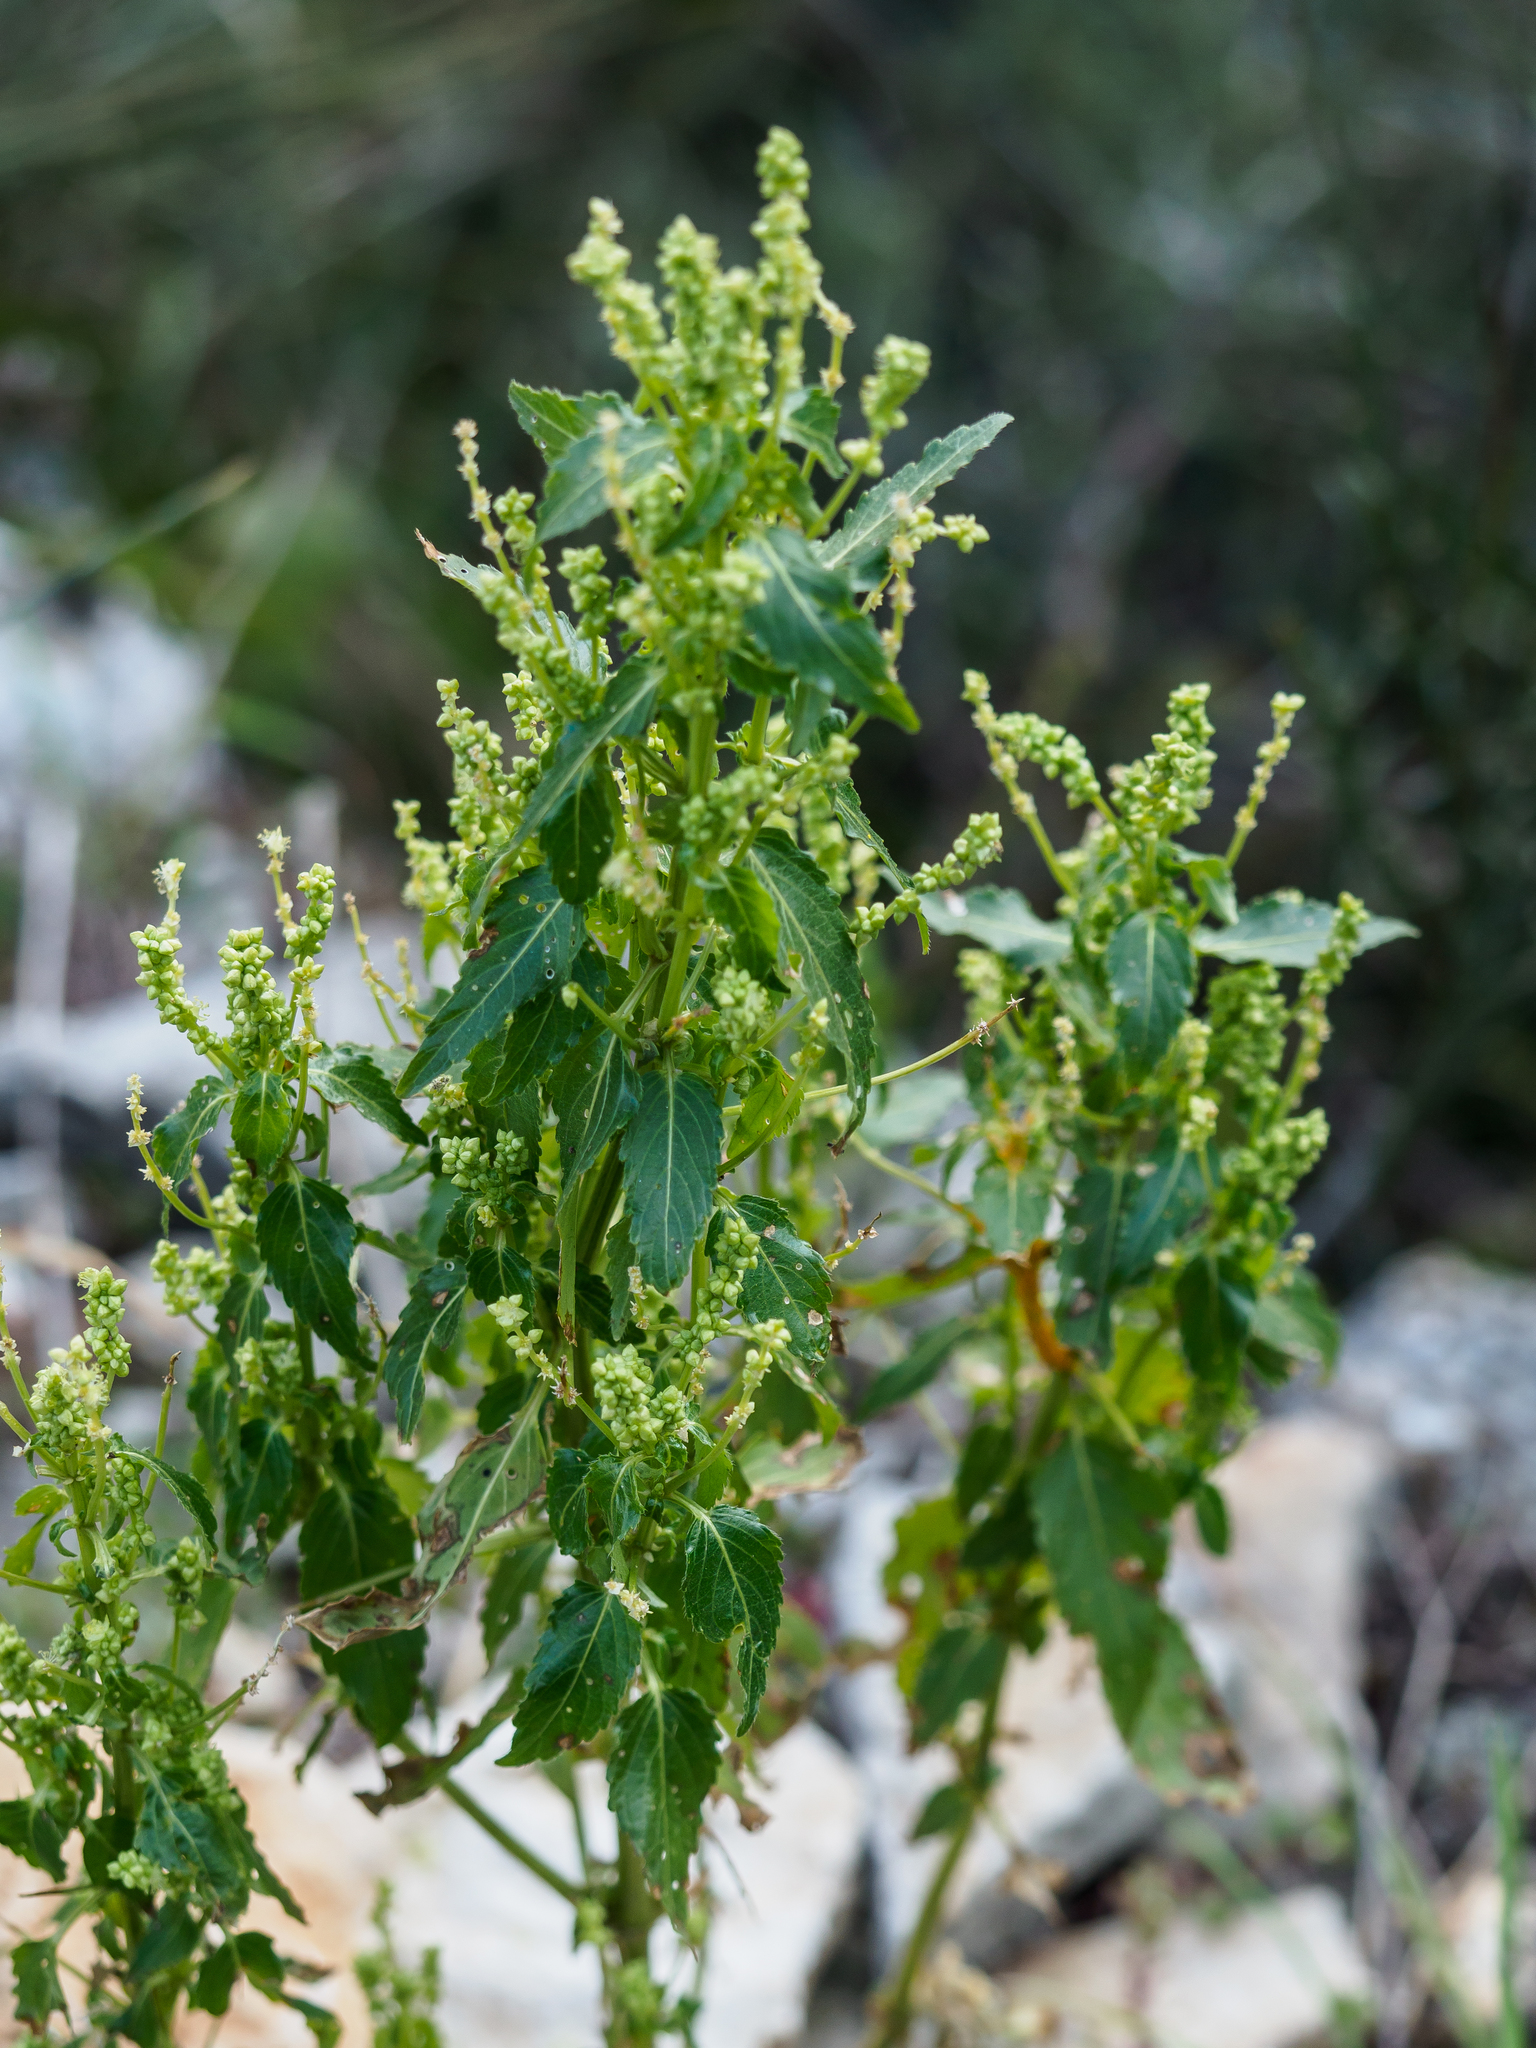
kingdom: Plantae
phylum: Tracheophyta
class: Magnoliopsida
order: Malpighiales
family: Euphorbiaceae
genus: Mercurialis
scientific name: Mercurialis annua
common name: Annual mercury
